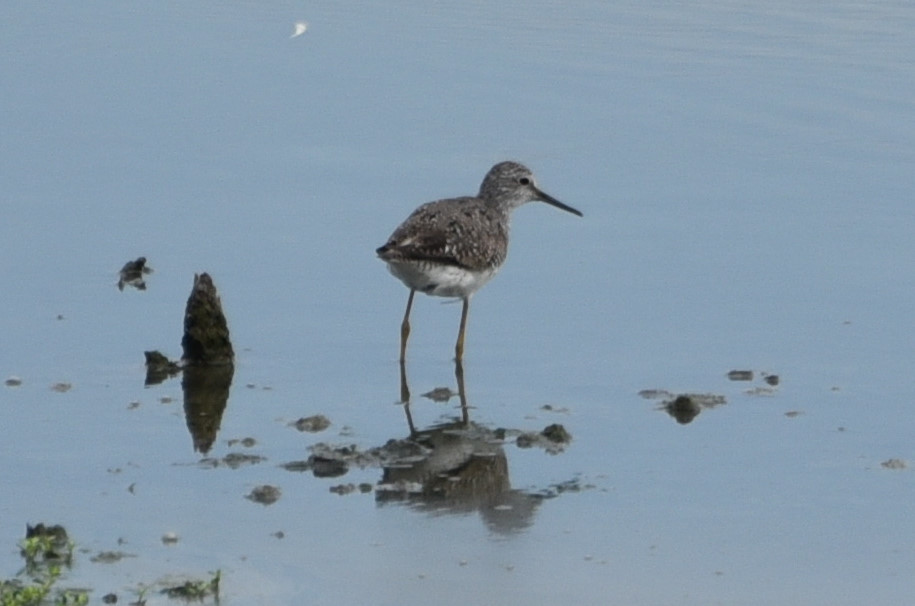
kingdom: Animalia
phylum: Chordata
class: Aves
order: Charadriiformes
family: Scolopacidae
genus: Tringa
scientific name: Tringa flavipes
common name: Lesser yellowlegs
